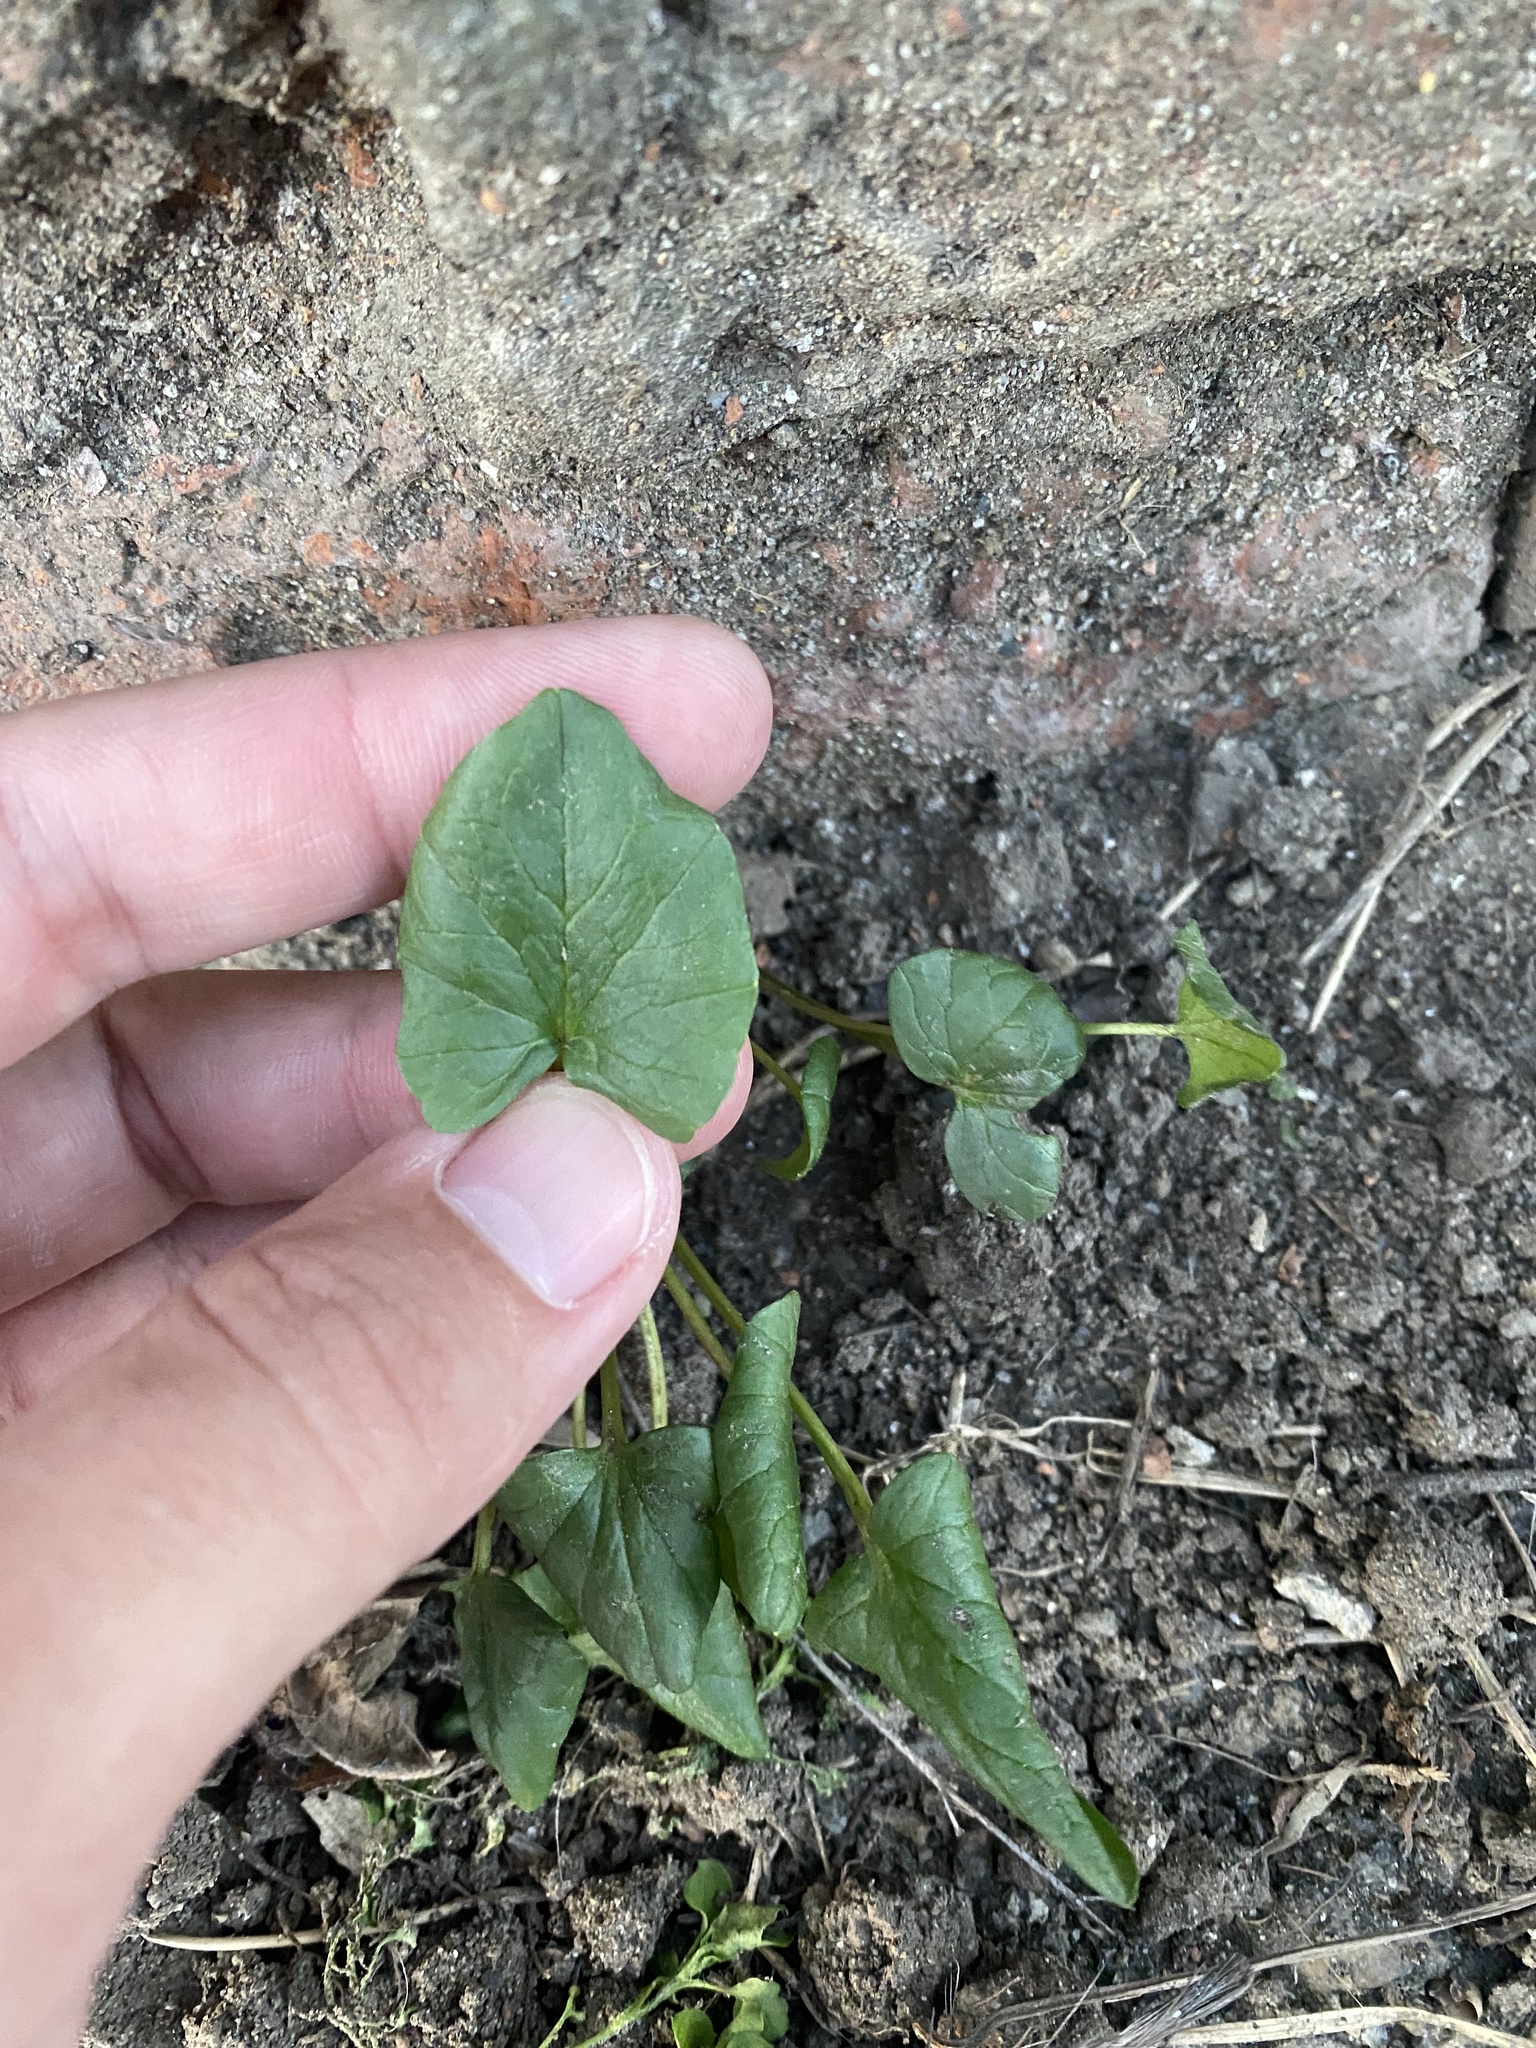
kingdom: Plantae
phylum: Tracheophyta
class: Magnoliopsida
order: Ranunculales
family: Ranunculaceae
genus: Ficaria
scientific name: Ficaria verna
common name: Lesser celandine
